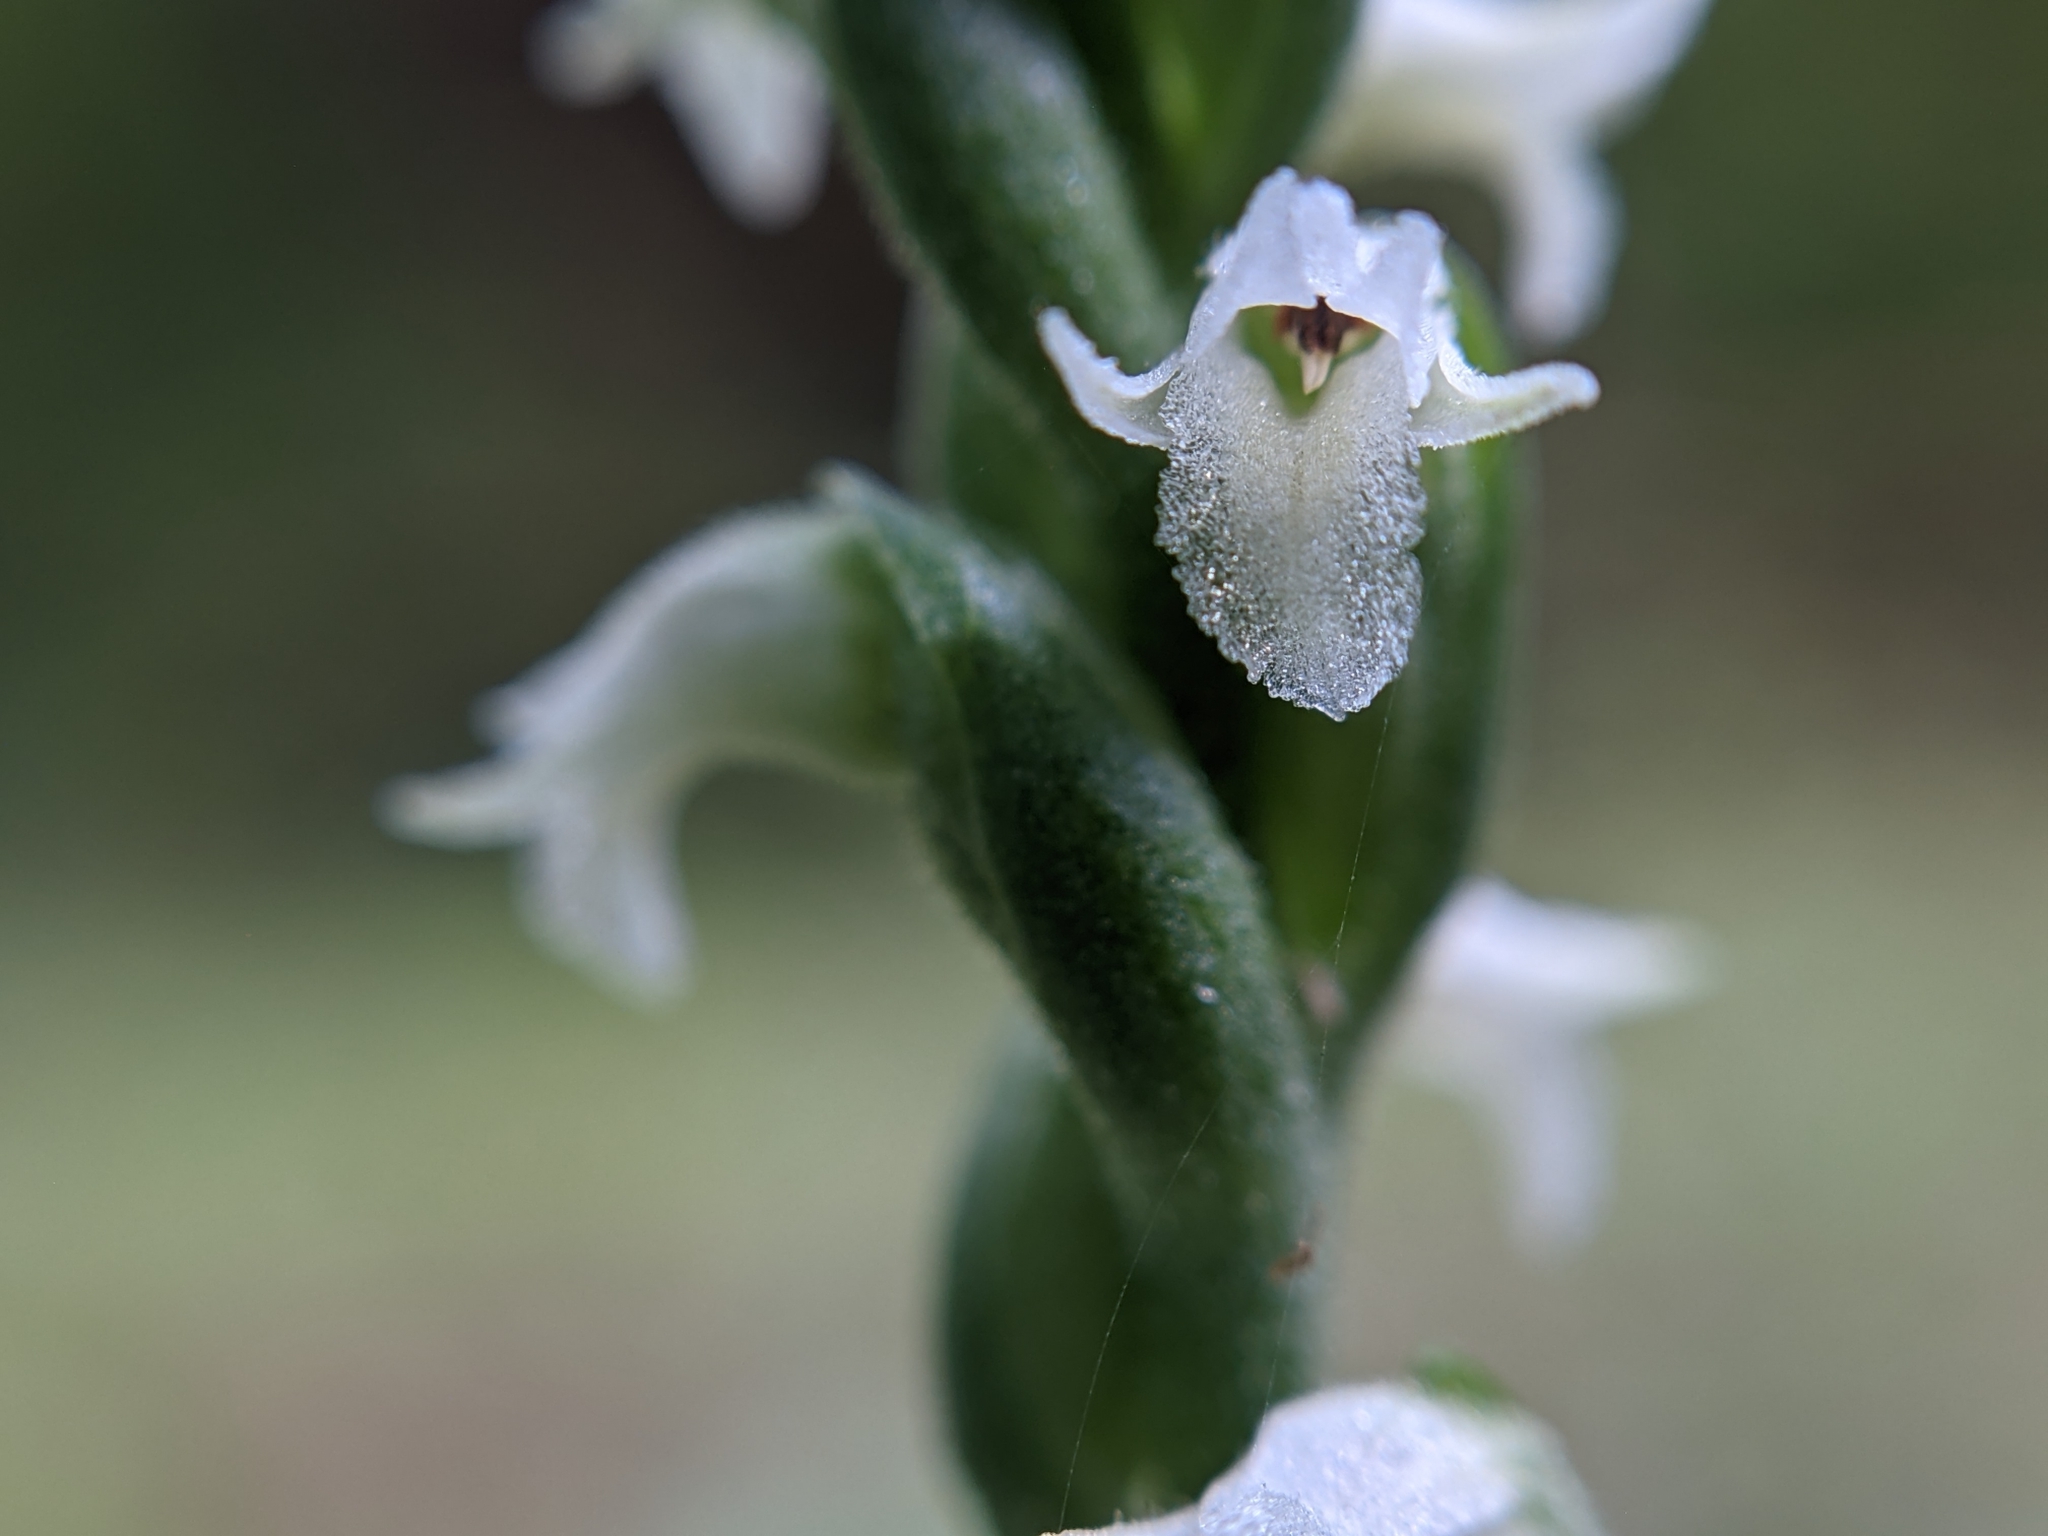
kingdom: Plantae
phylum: Tracheophyta
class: Liliopsida
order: Asparagales
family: Orchidaceae
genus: Spiranthes
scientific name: Spiranthes ovalis
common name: October ladies'-tresses
